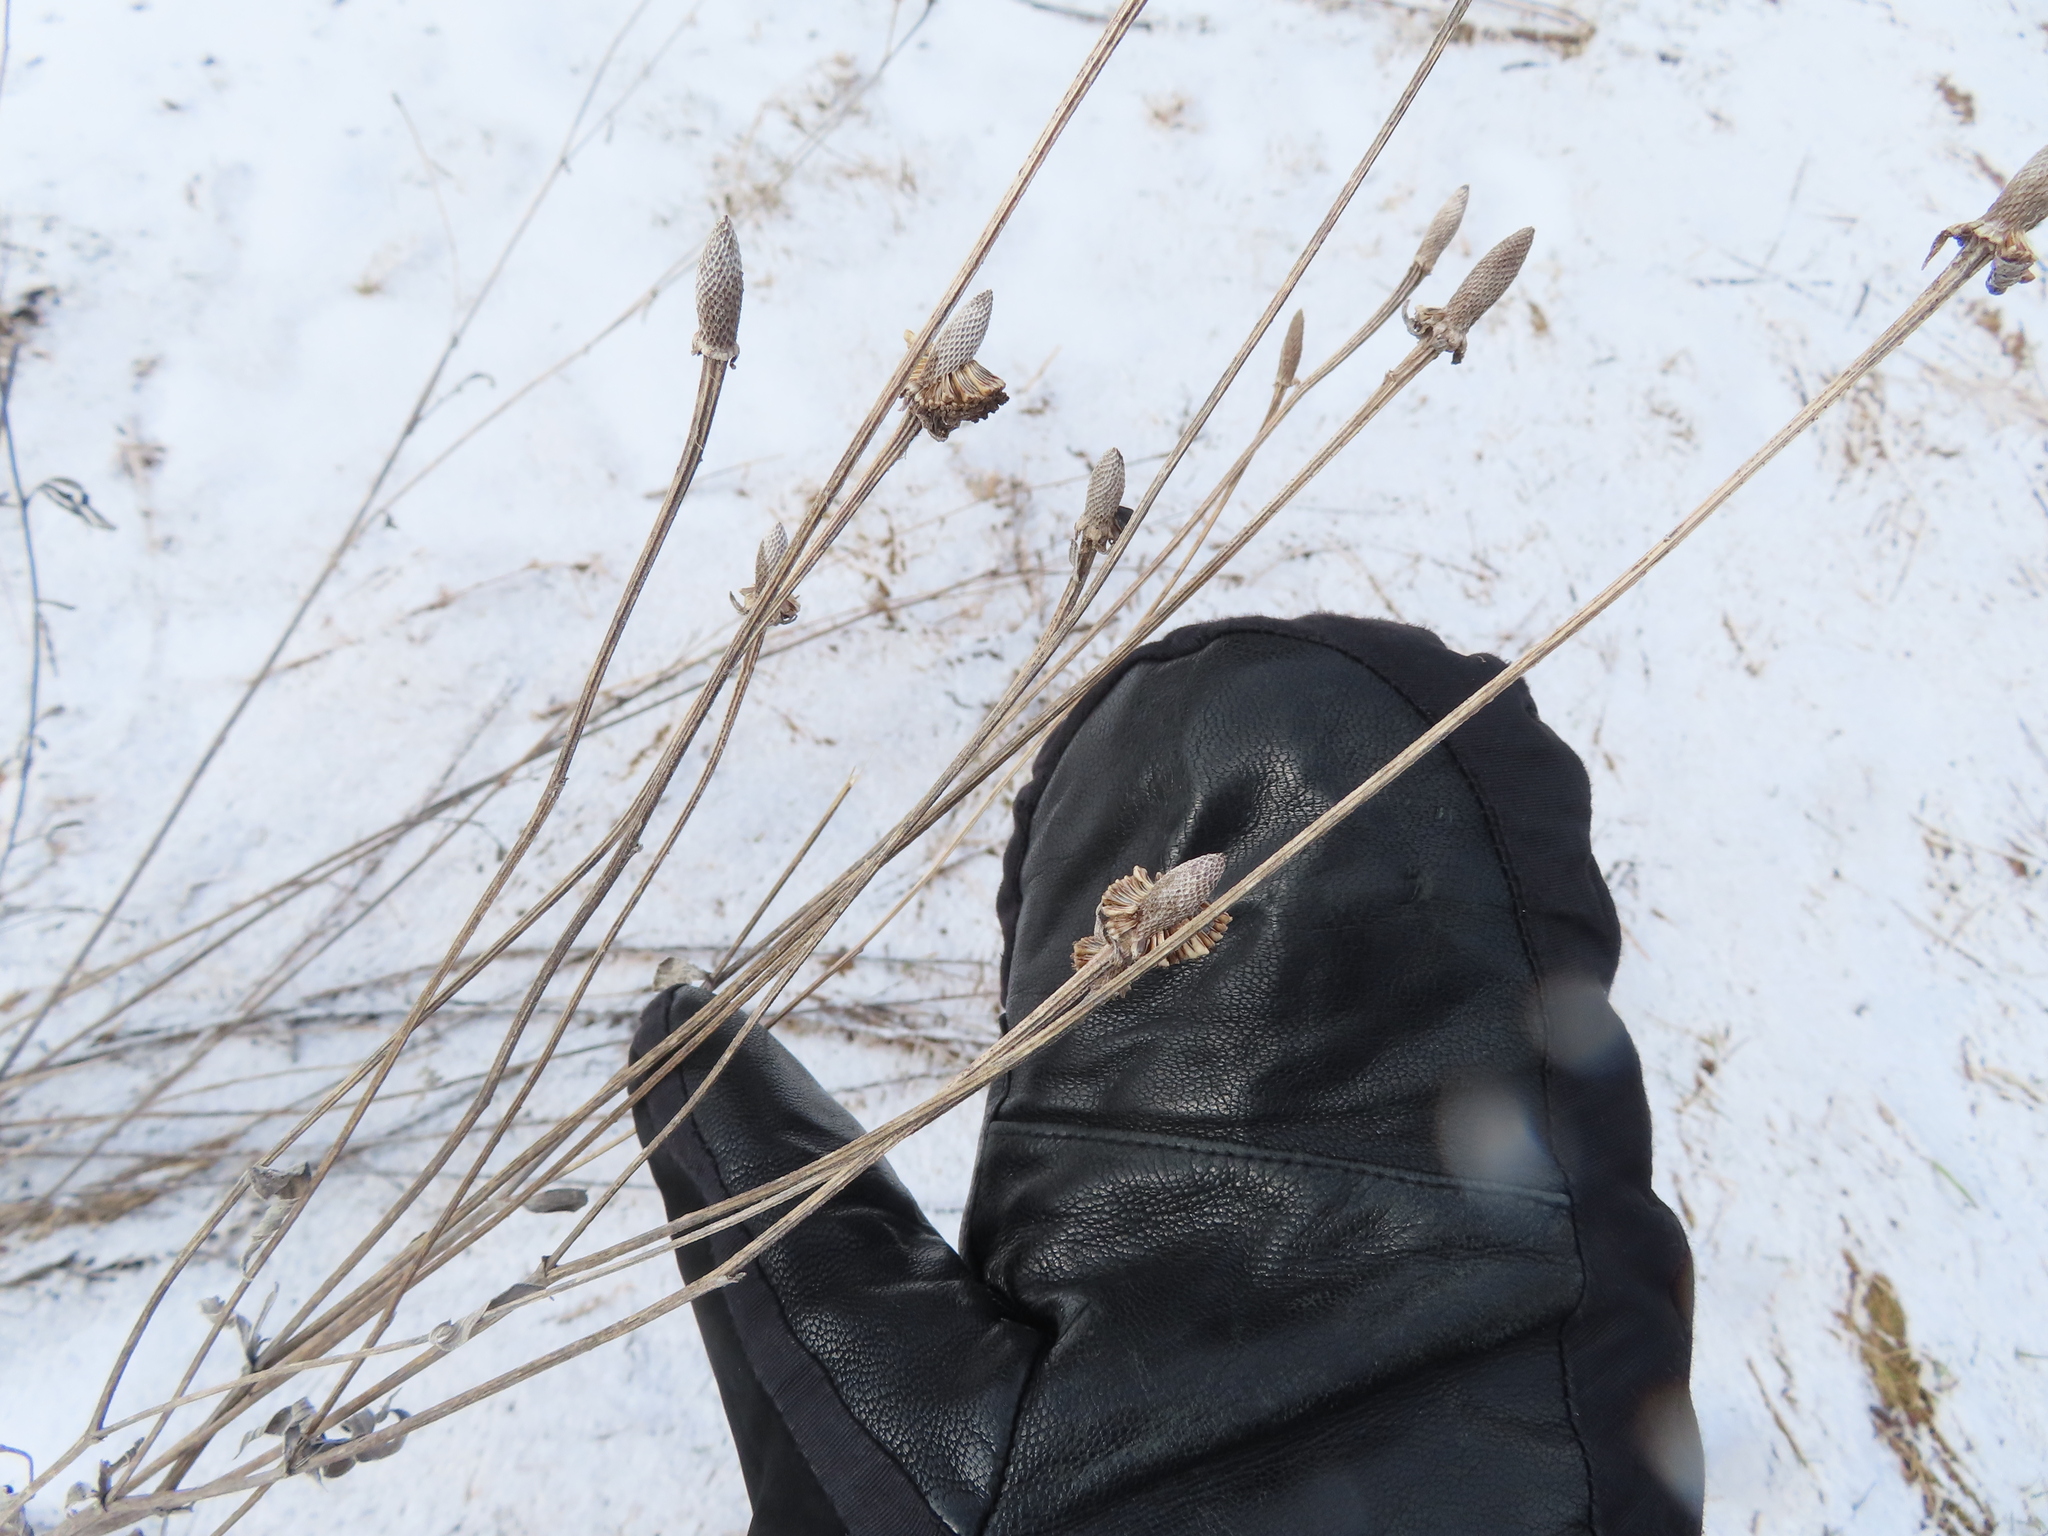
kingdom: Plantae
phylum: Tracheophyta
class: Magnoliopsida
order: Asterales
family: Asteraceae
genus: Ratibida
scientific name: Ratibida pinnata
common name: Drooping prairie-coneflower
